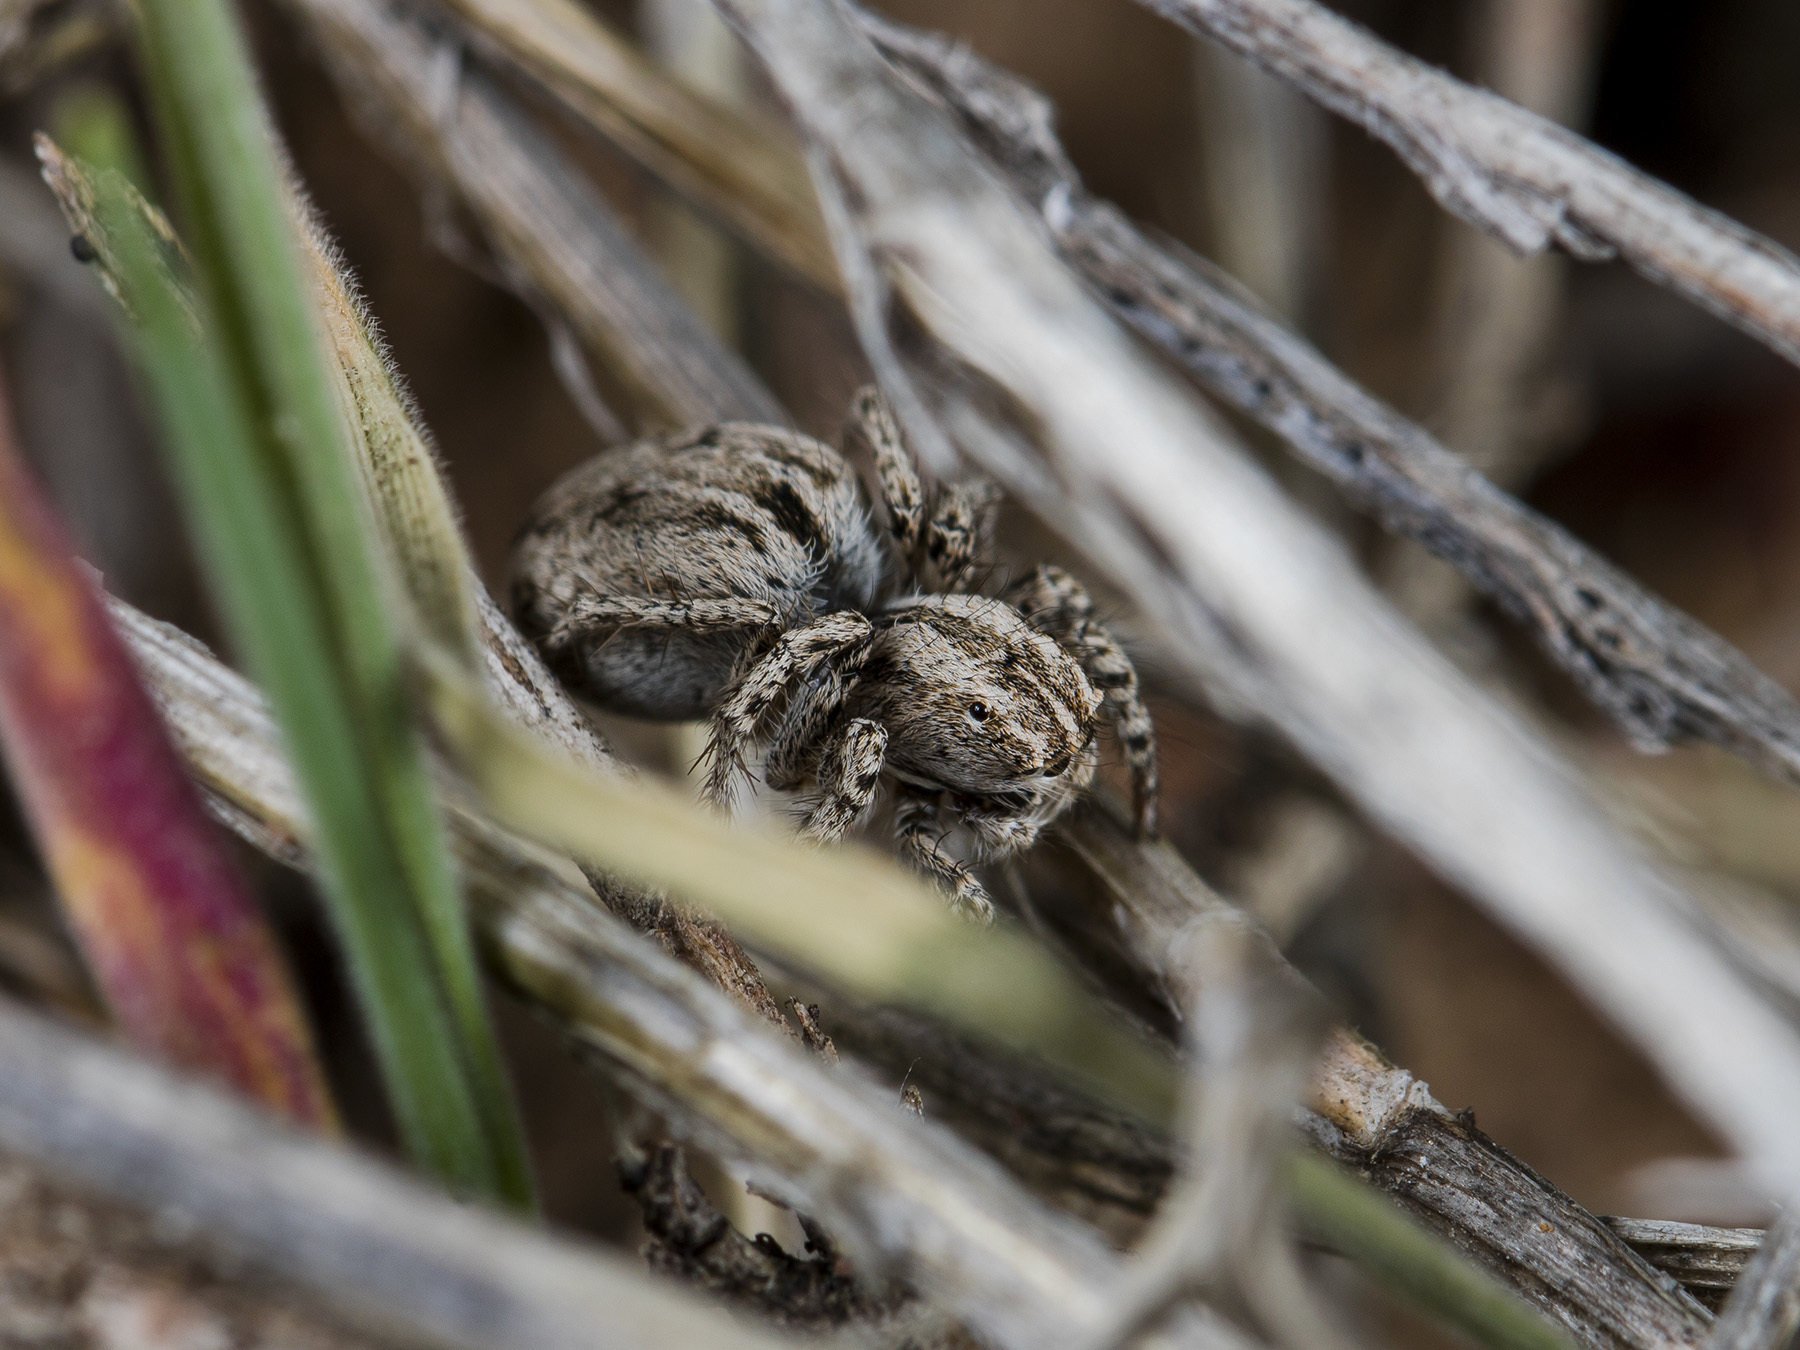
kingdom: Animalia
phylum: Arthropoda
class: Arachnida
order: Araneae
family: Salticidae
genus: Aelurillus
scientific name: Aelurillus m-nigrum
